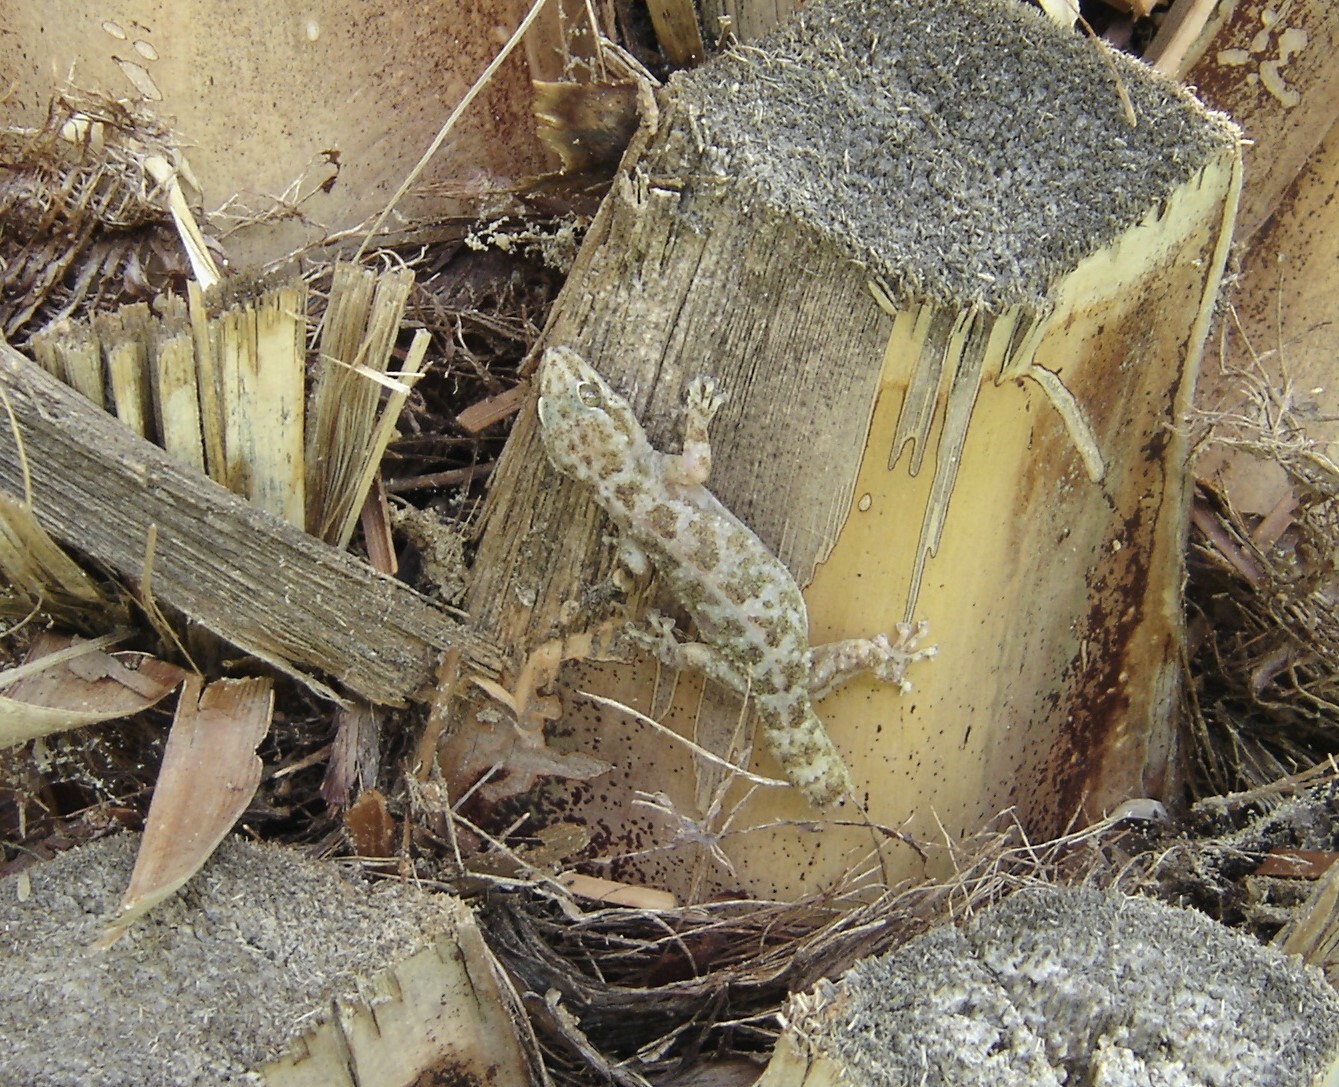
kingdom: Animalia
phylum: Chordata
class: Squamata
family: Phyllodactylidae
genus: Phyllodactylus
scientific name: Phyllodactylus tuberculosus
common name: Yellowbelly  gecko
